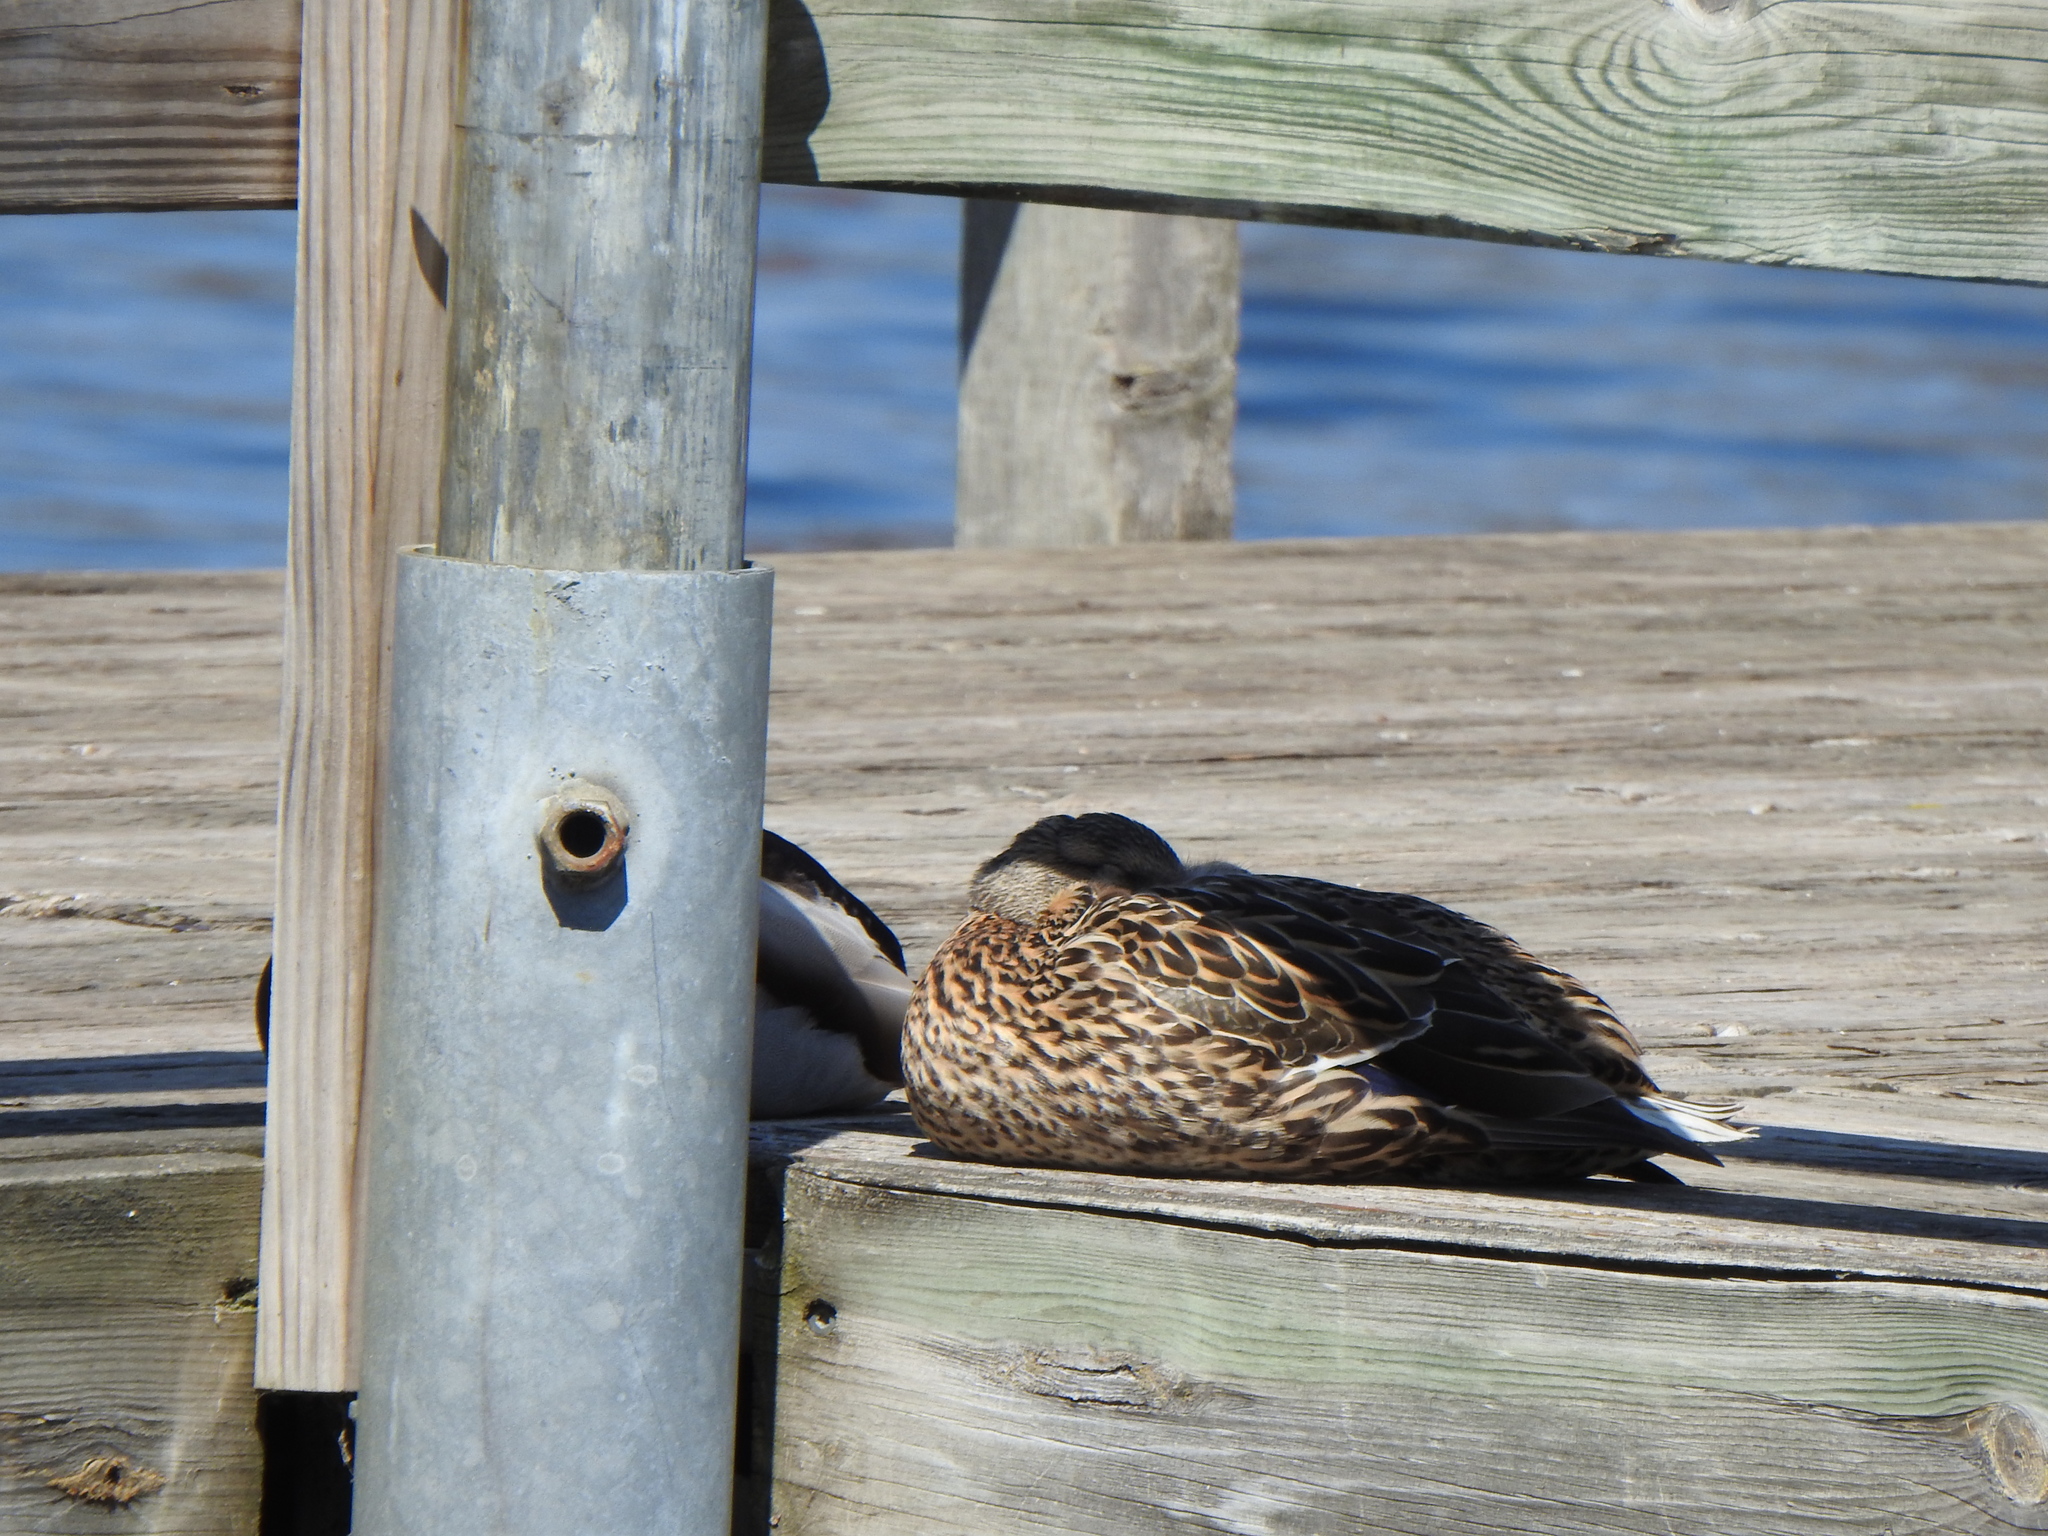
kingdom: Animalia
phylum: Chordata
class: Aves
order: Anseriformes
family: Anatidae
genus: Anas
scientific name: Anas platyrhynchos
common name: Mallard
